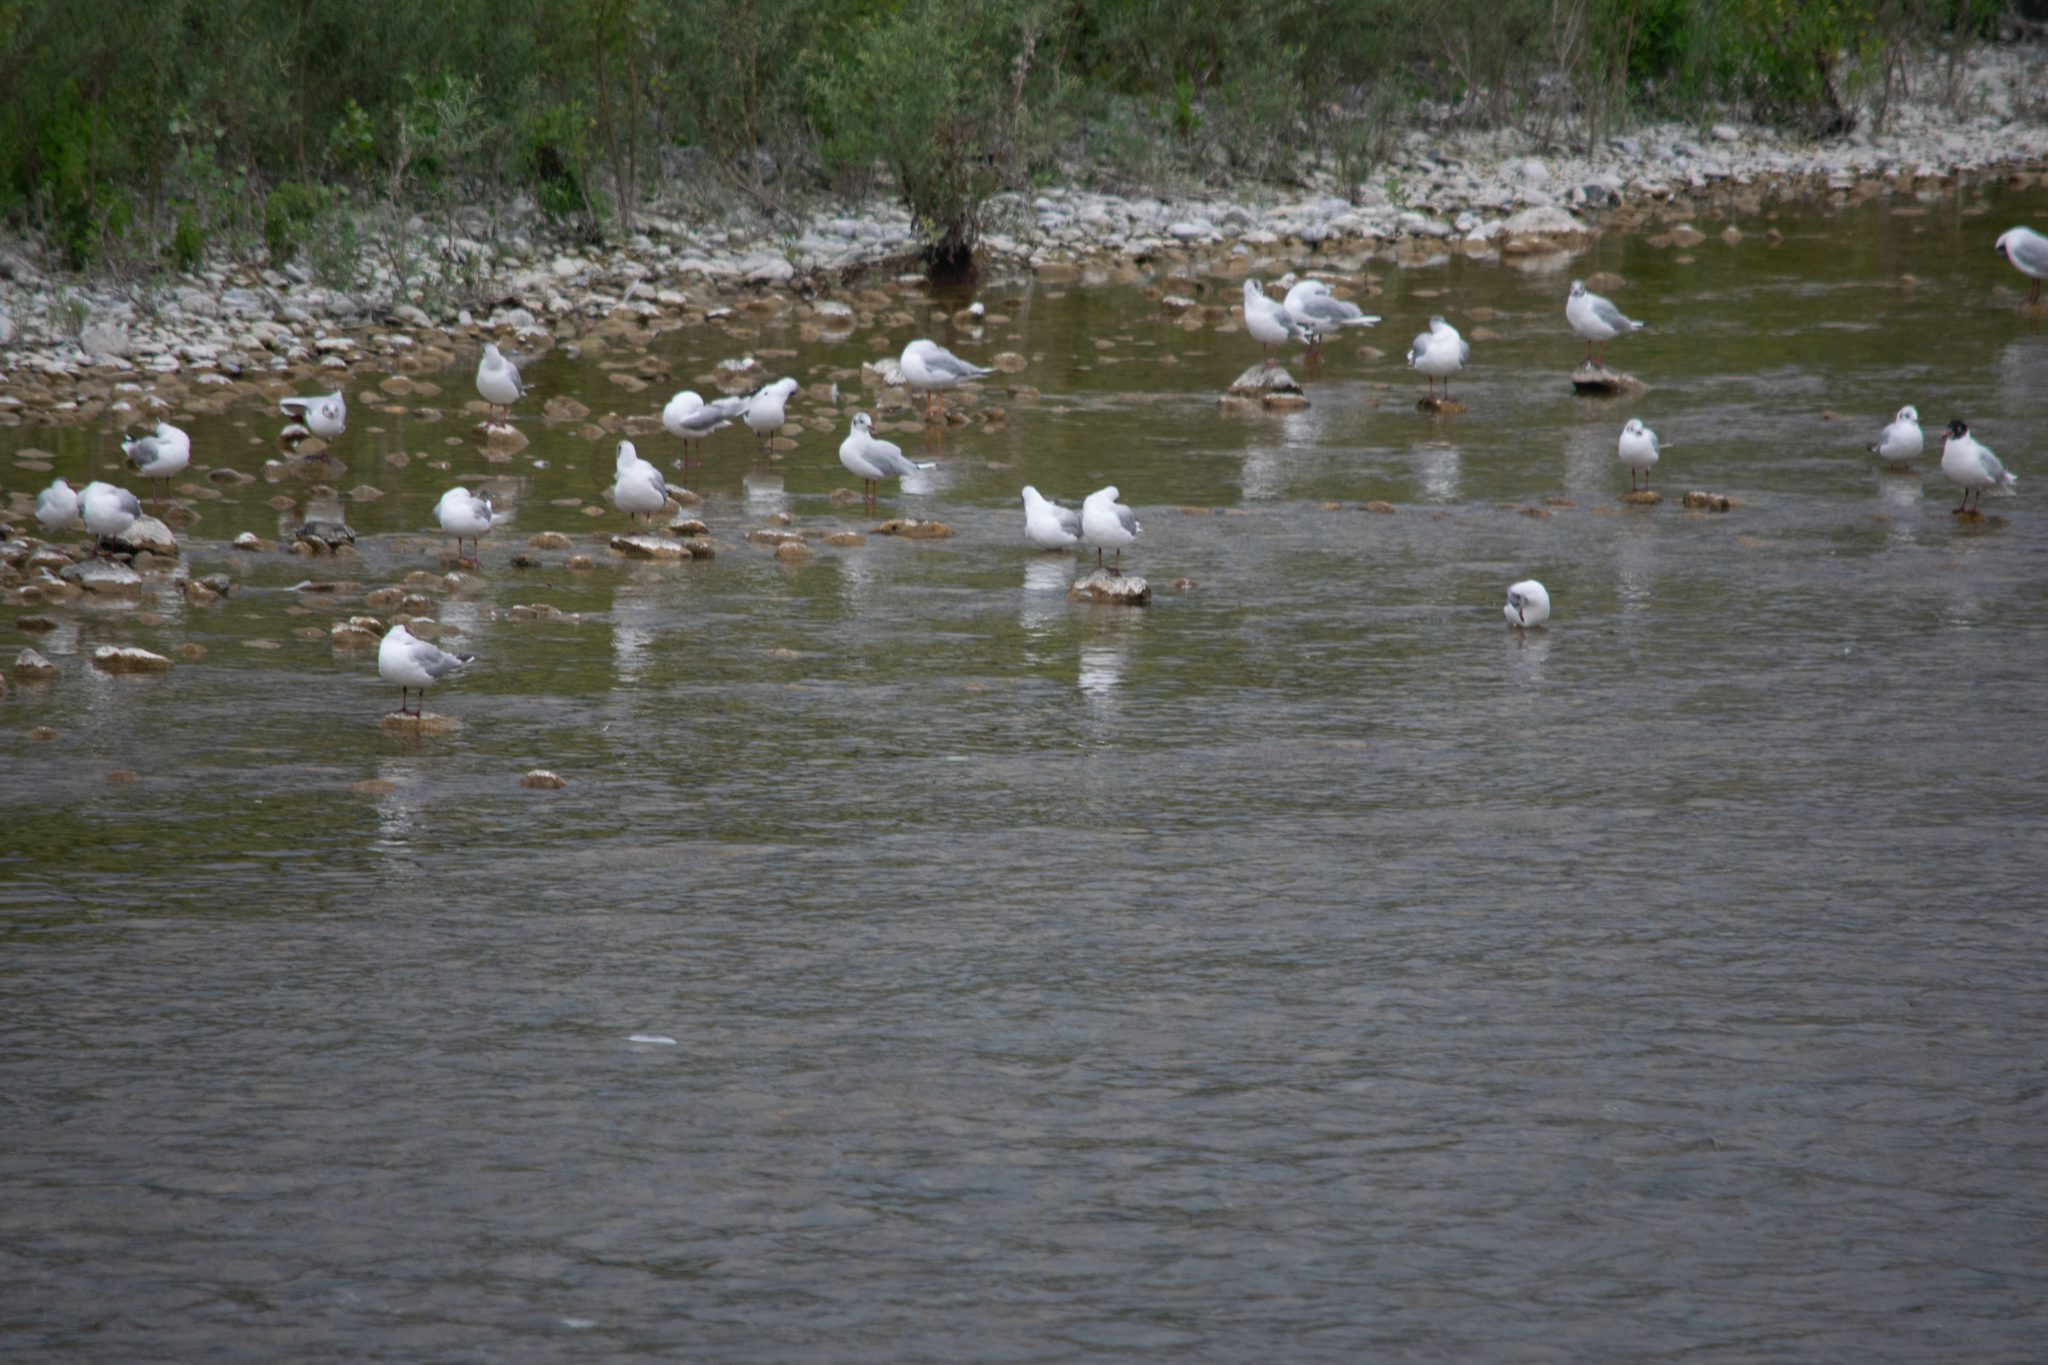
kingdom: Animalia
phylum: Chordata
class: Aves
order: Charadriiformes
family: Laridae
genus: Ichthyaetus
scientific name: Ichthyaetus melanocephalus
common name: Mediterranean gull
